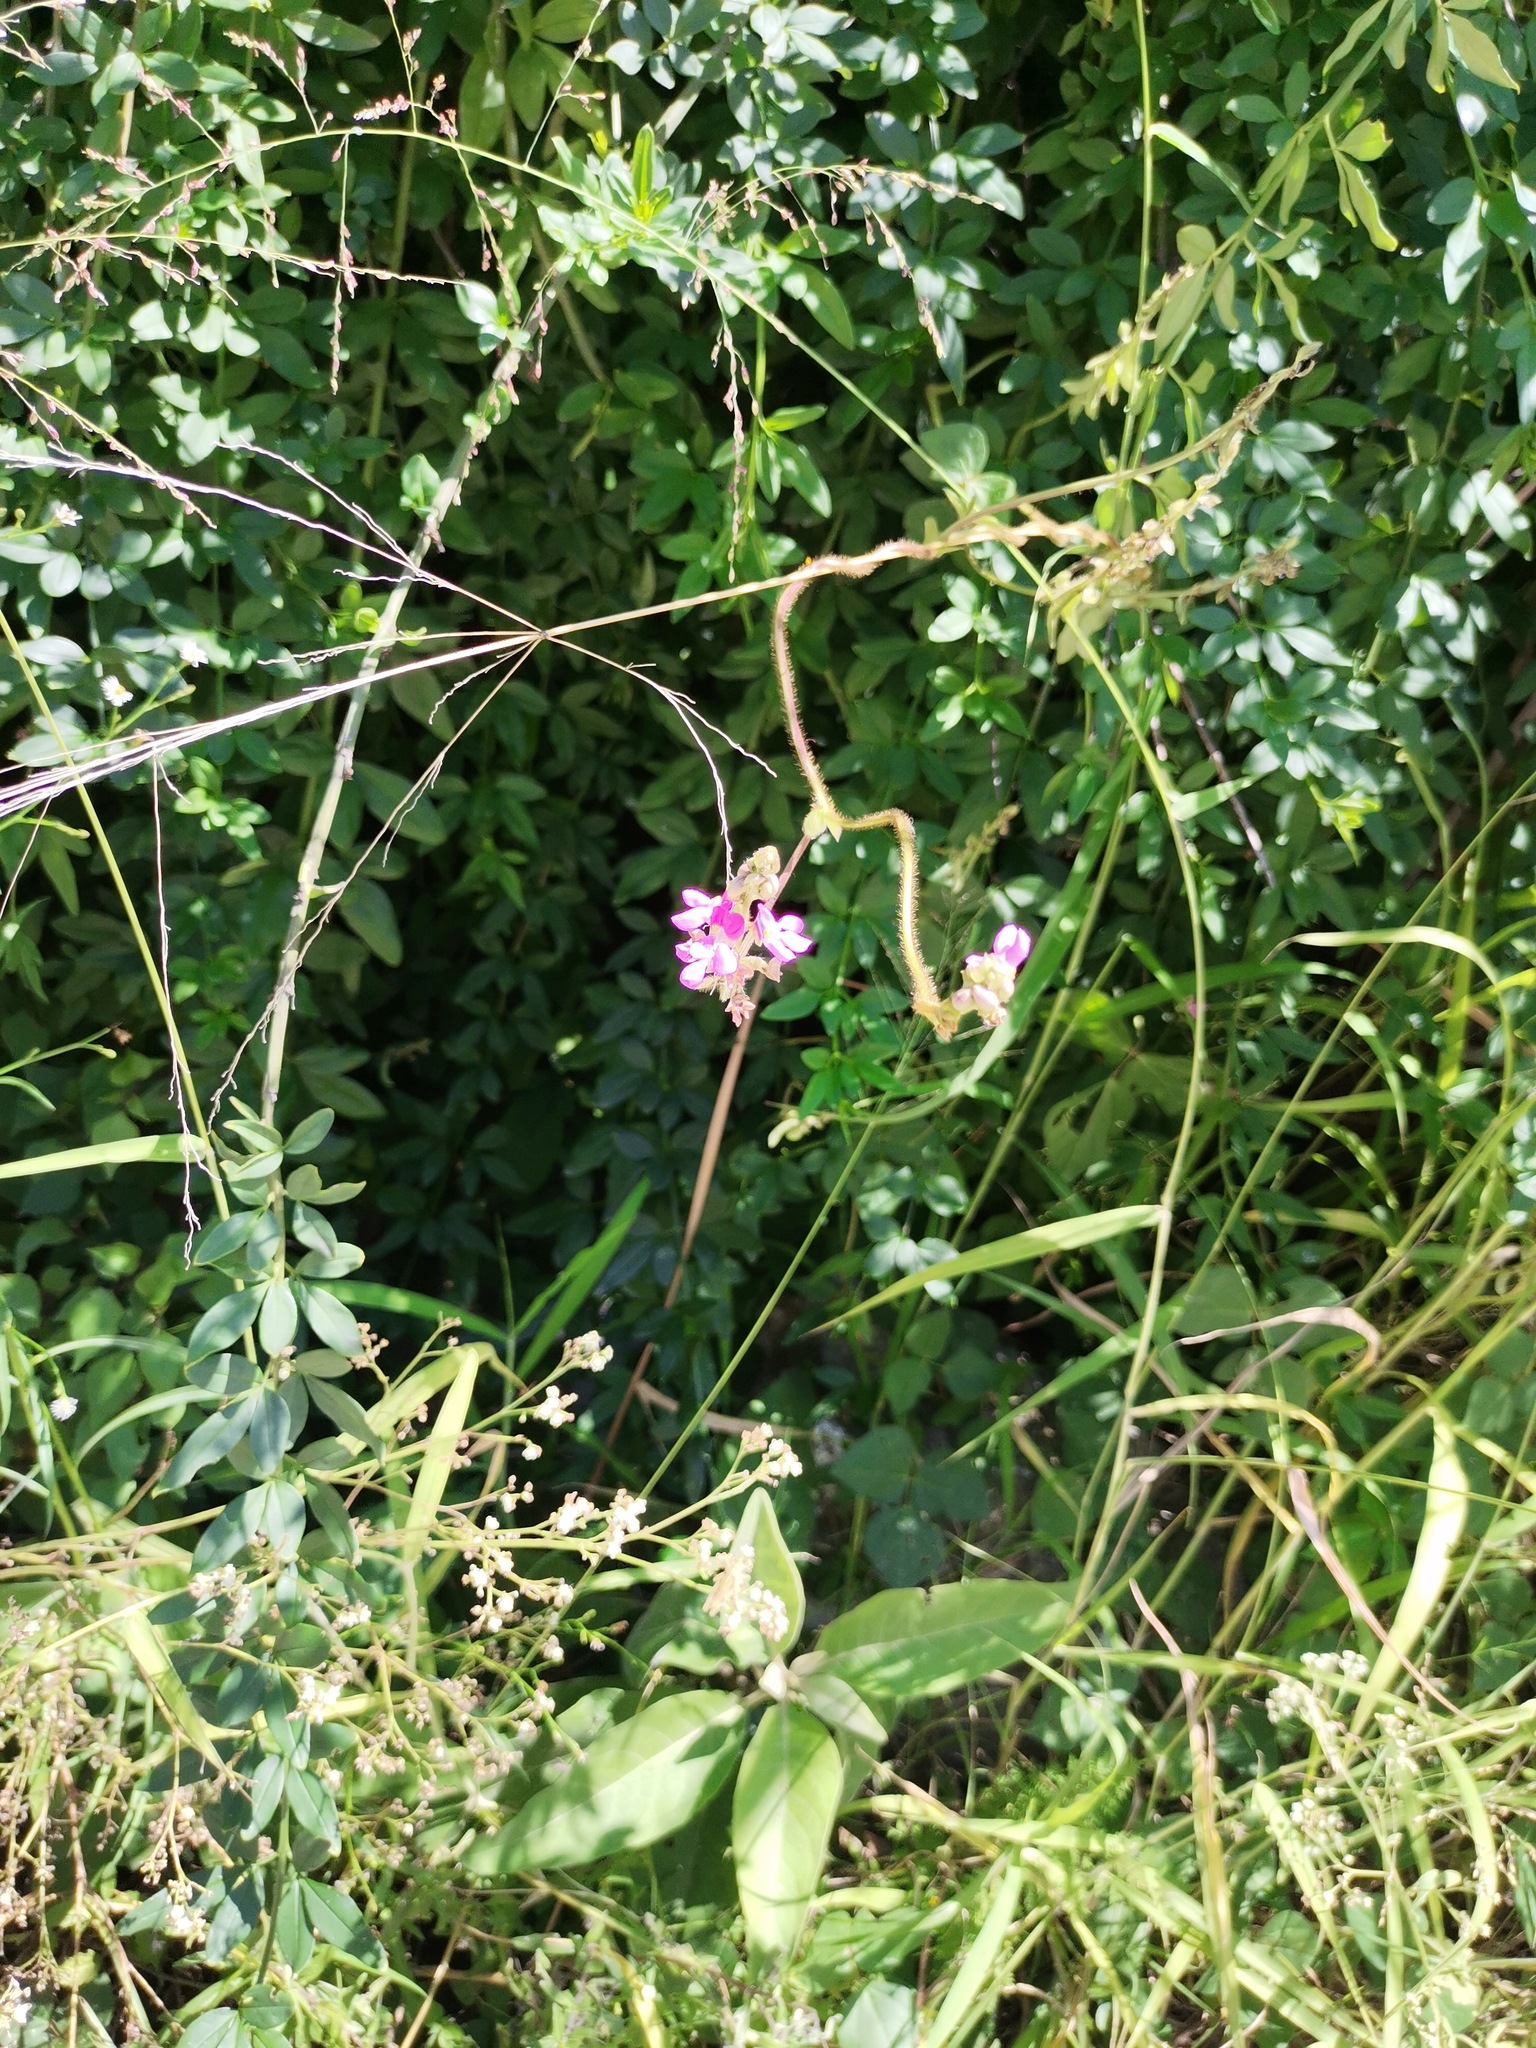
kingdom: Plantae
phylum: Tracheophyta
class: Magnoliopsida
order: Fabales
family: Fabaceae
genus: Phaseolus
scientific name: Phaseolus vulgaris
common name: Bean
